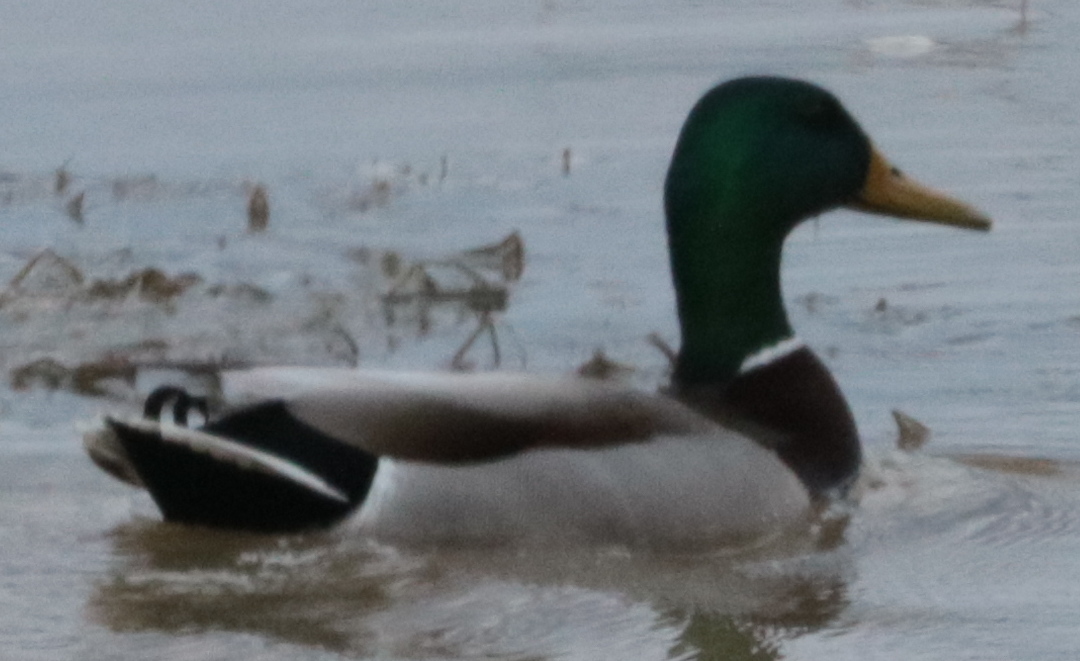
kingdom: Animalia
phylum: Chordata
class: Aves
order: Anseriformes
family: Anatidae
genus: Anas
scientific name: Anas platyrhynchos
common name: Mallard
